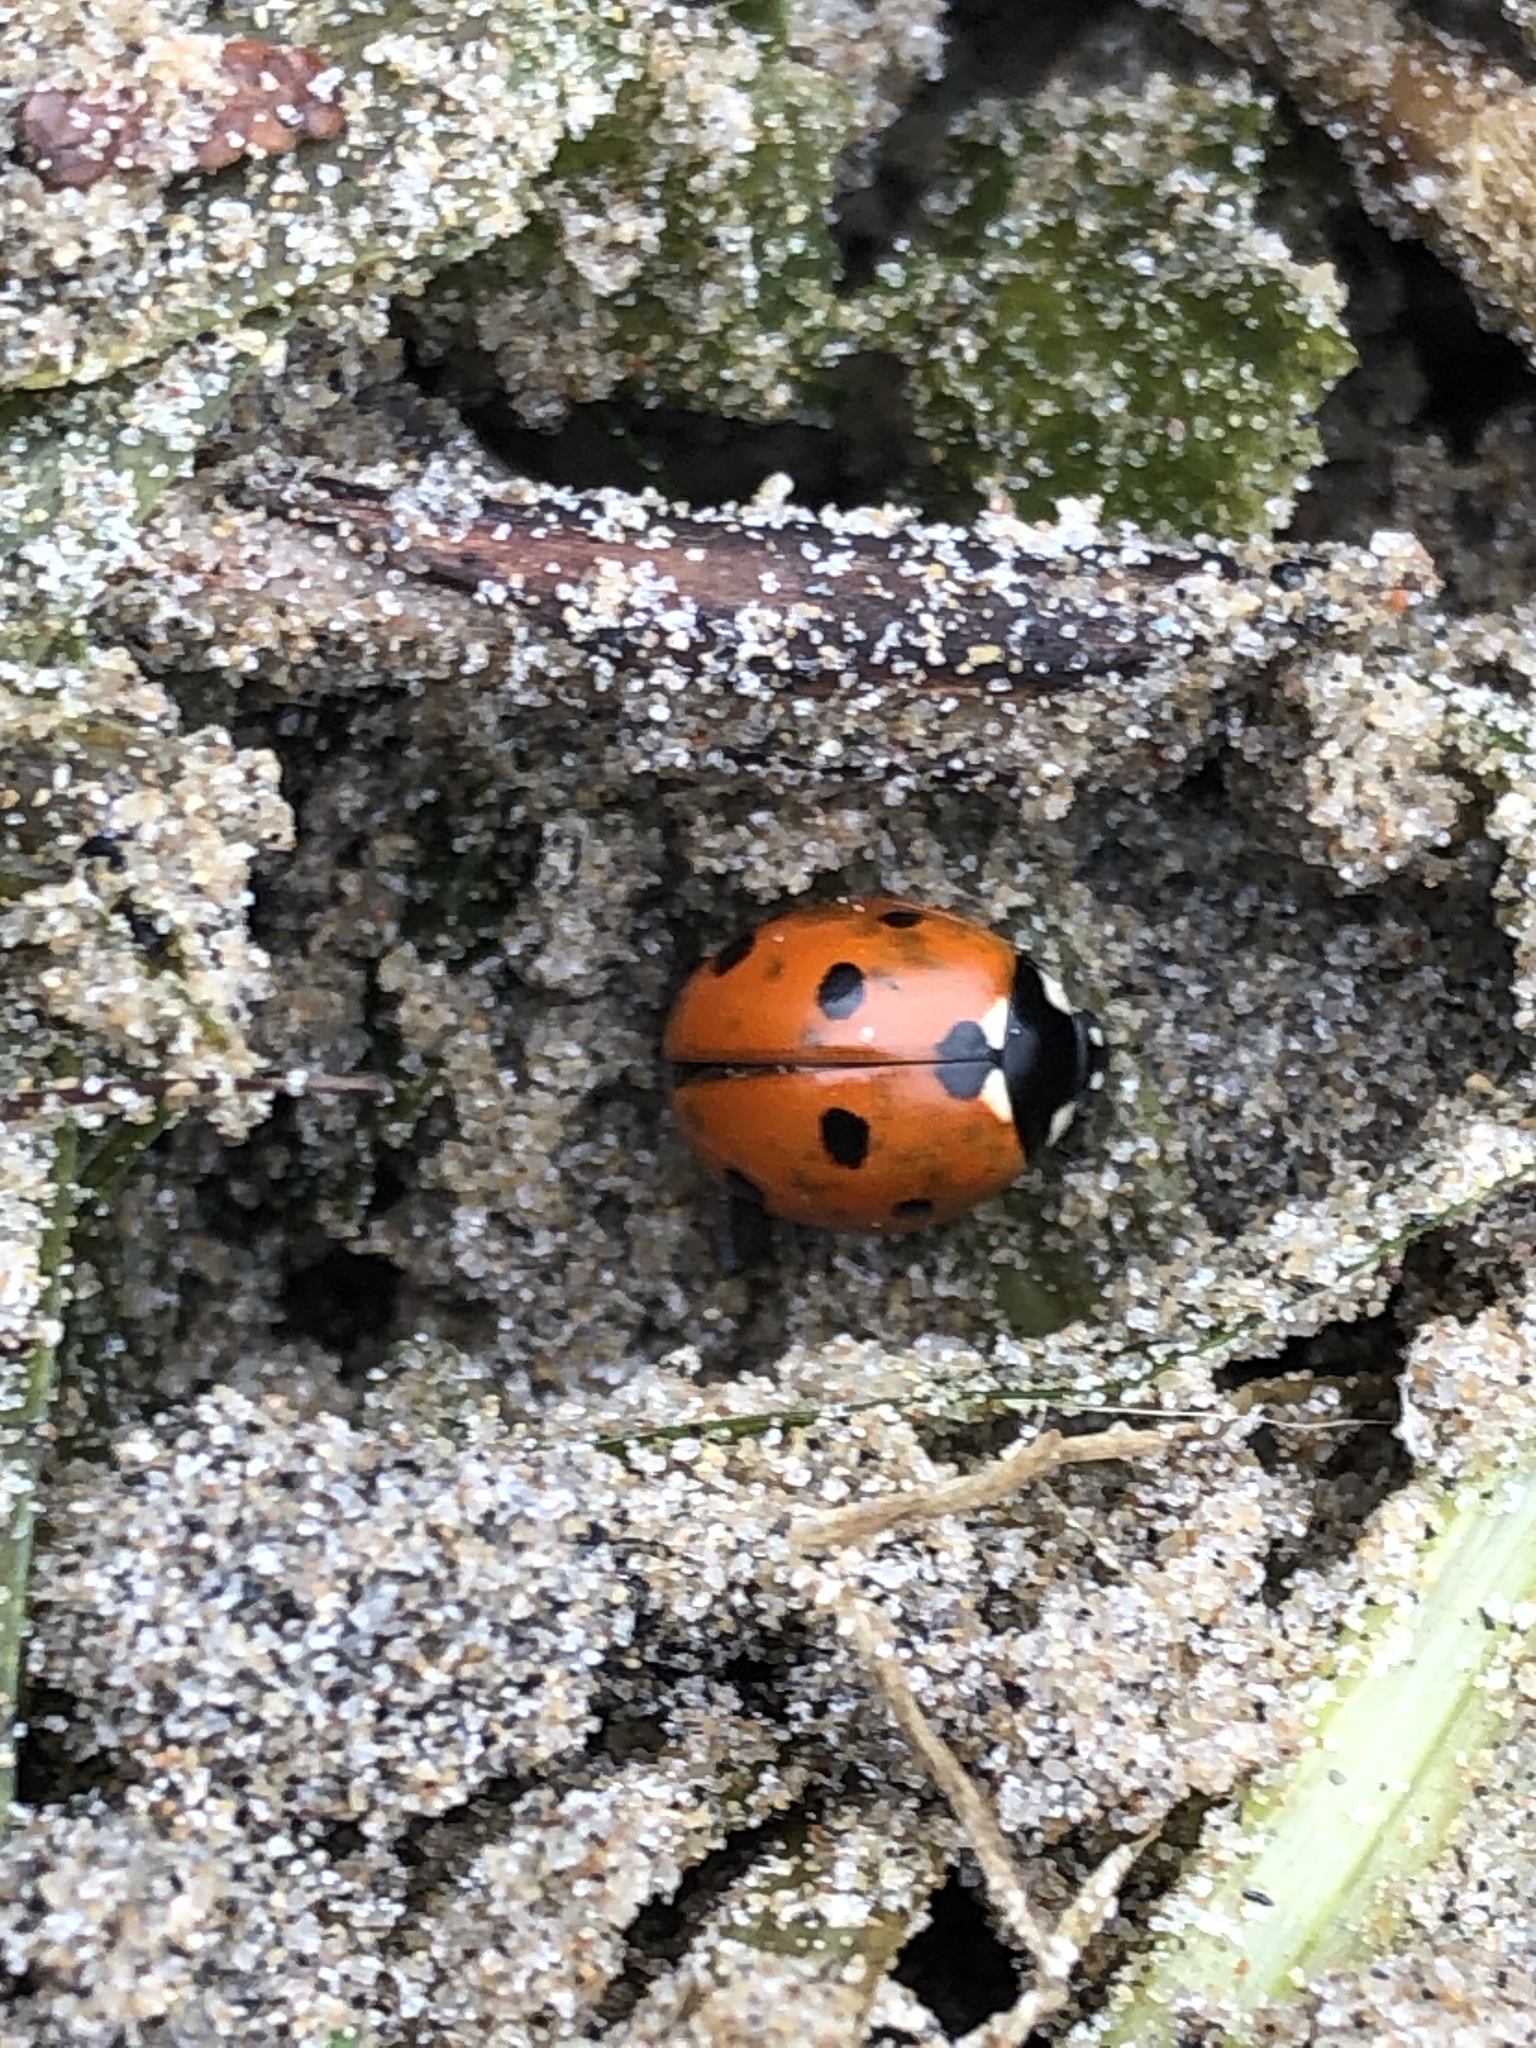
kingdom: Animalia
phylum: Arthropoda
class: Insecta
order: Coleoptera
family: Coccinellidae
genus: Coccinella
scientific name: Coccinella septempunctata
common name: Sevenspotted lady beetle
